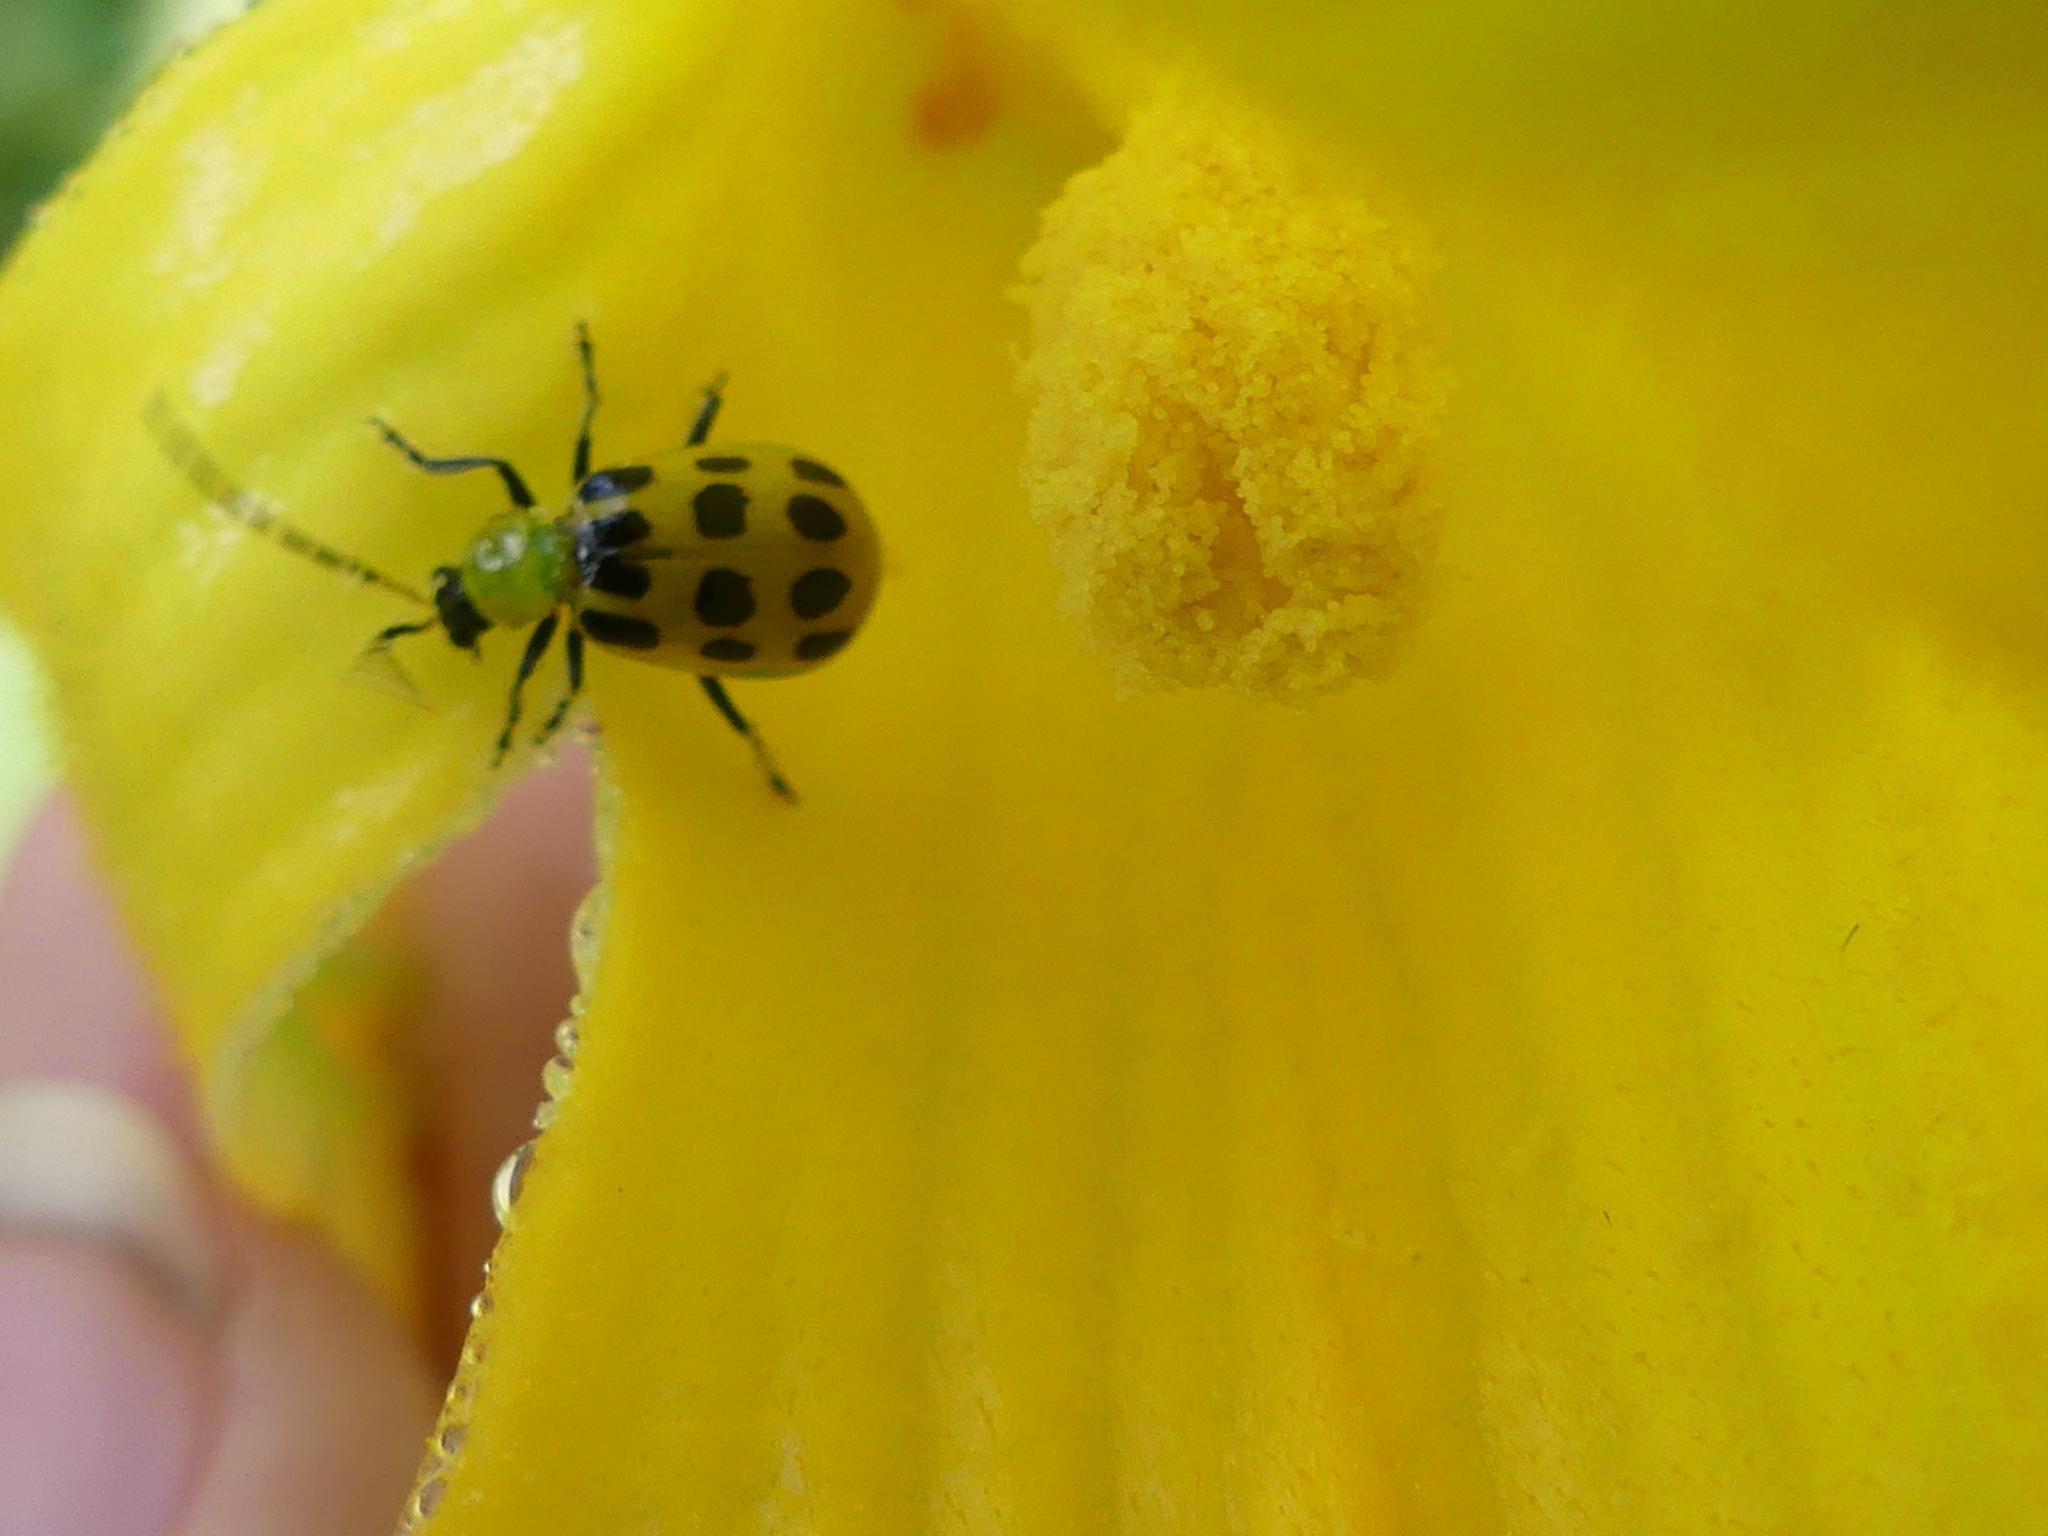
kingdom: Animalia
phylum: Arthropoda
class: Insecta
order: Coleoptera
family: Chrysomelidae
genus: Diabrotica
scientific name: Diabrotica undecimpunctata
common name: Spotted cucumber beetle
